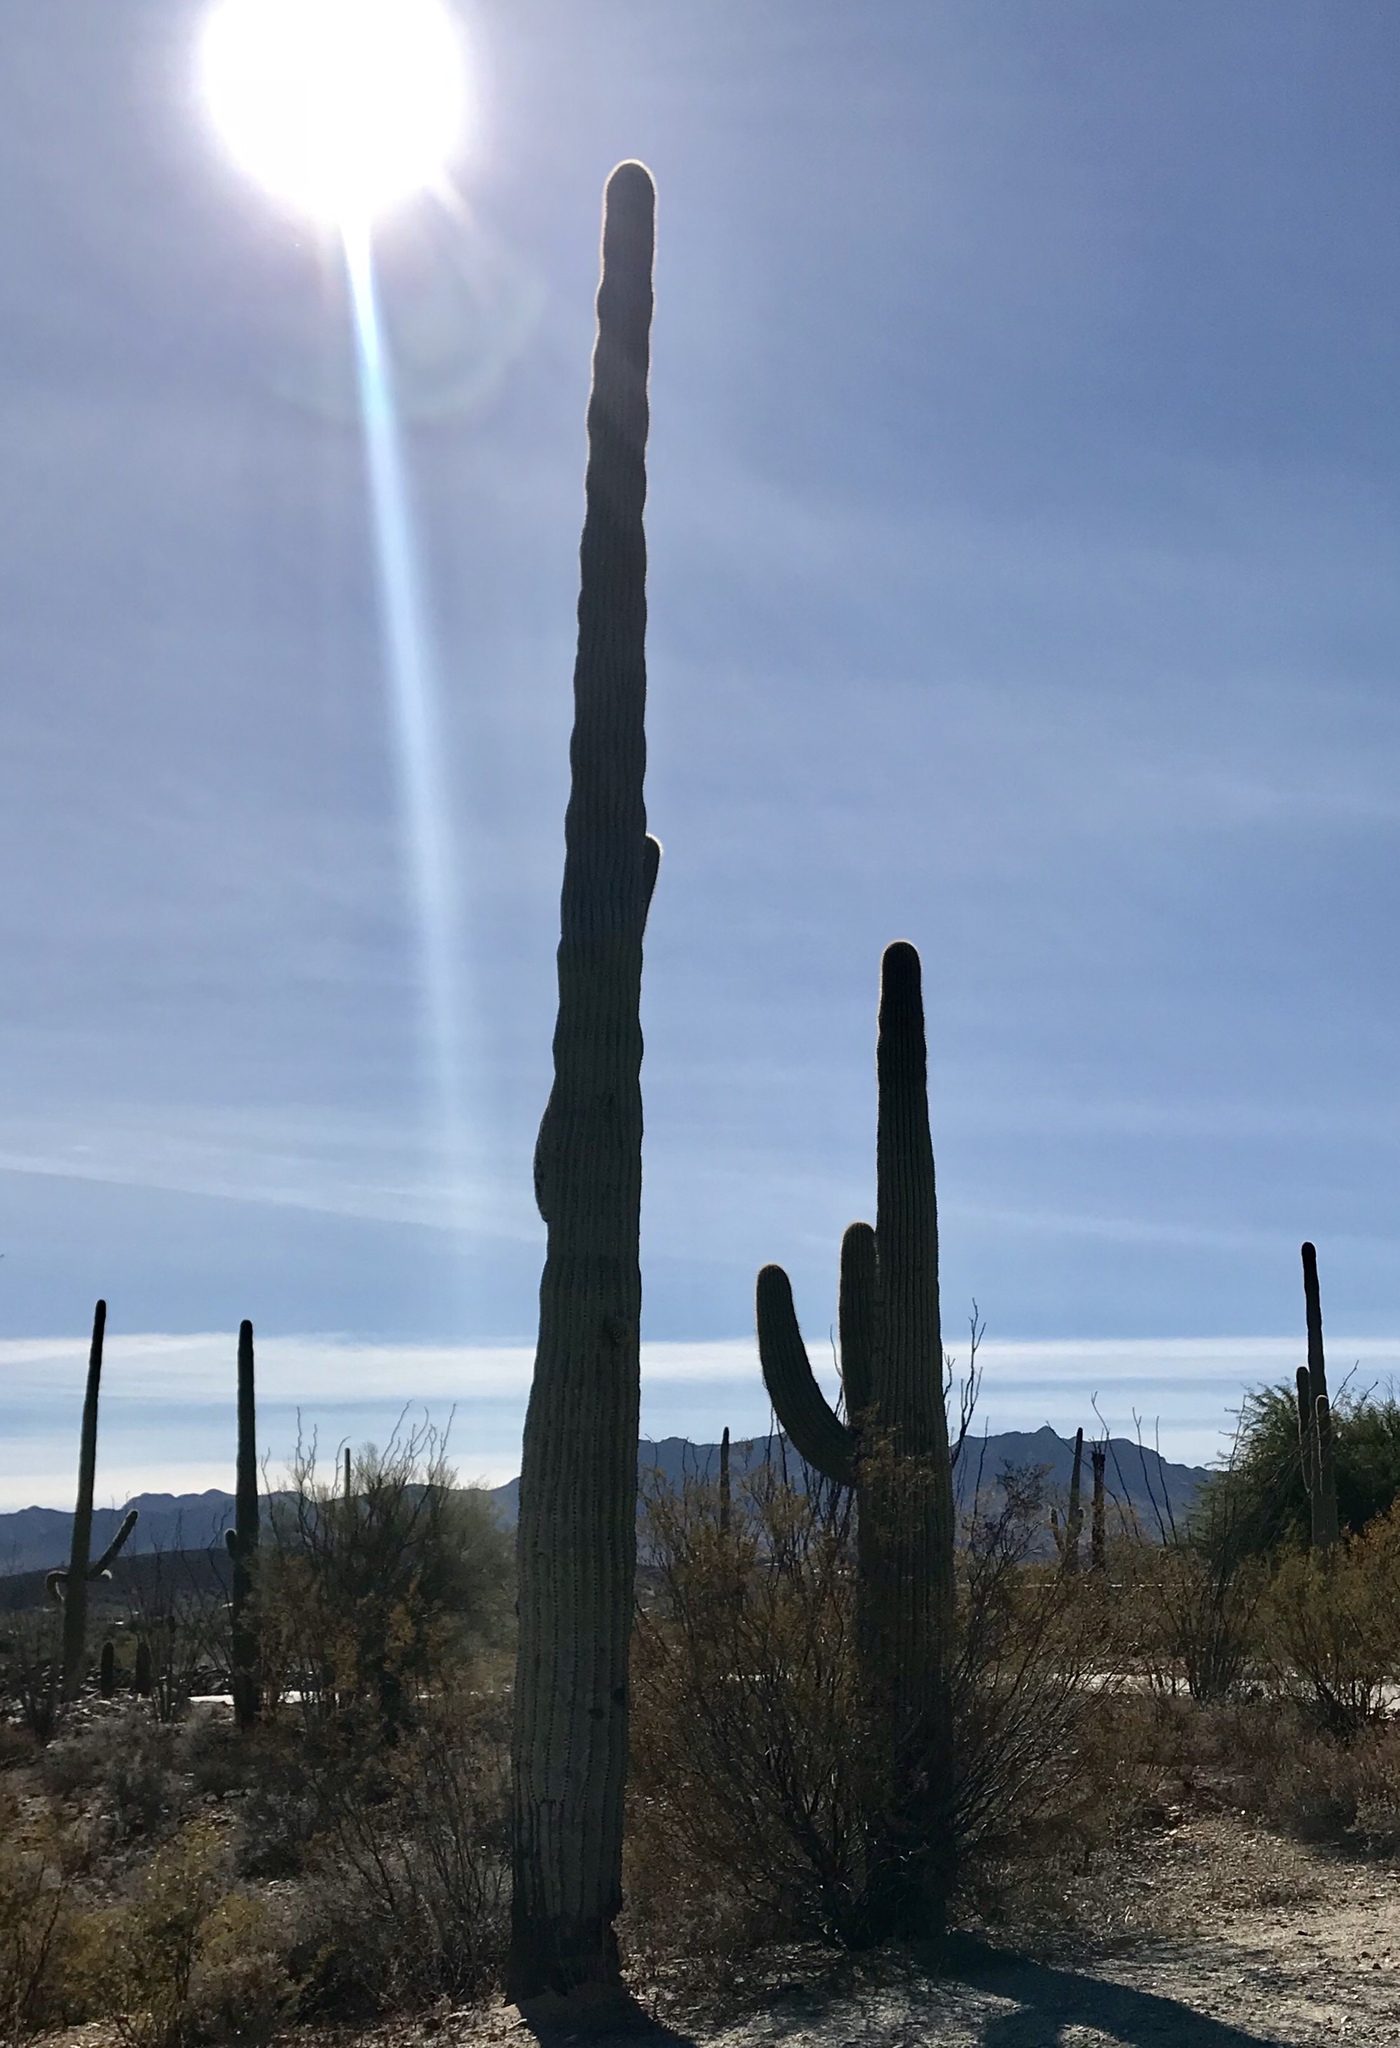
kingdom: Plantae
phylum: Tracheophyta
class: Magnoliopsida
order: Caryophyllales
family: Cactaceae
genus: Carnegiea
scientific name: Carnegiea gigantea
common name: Saguaro
